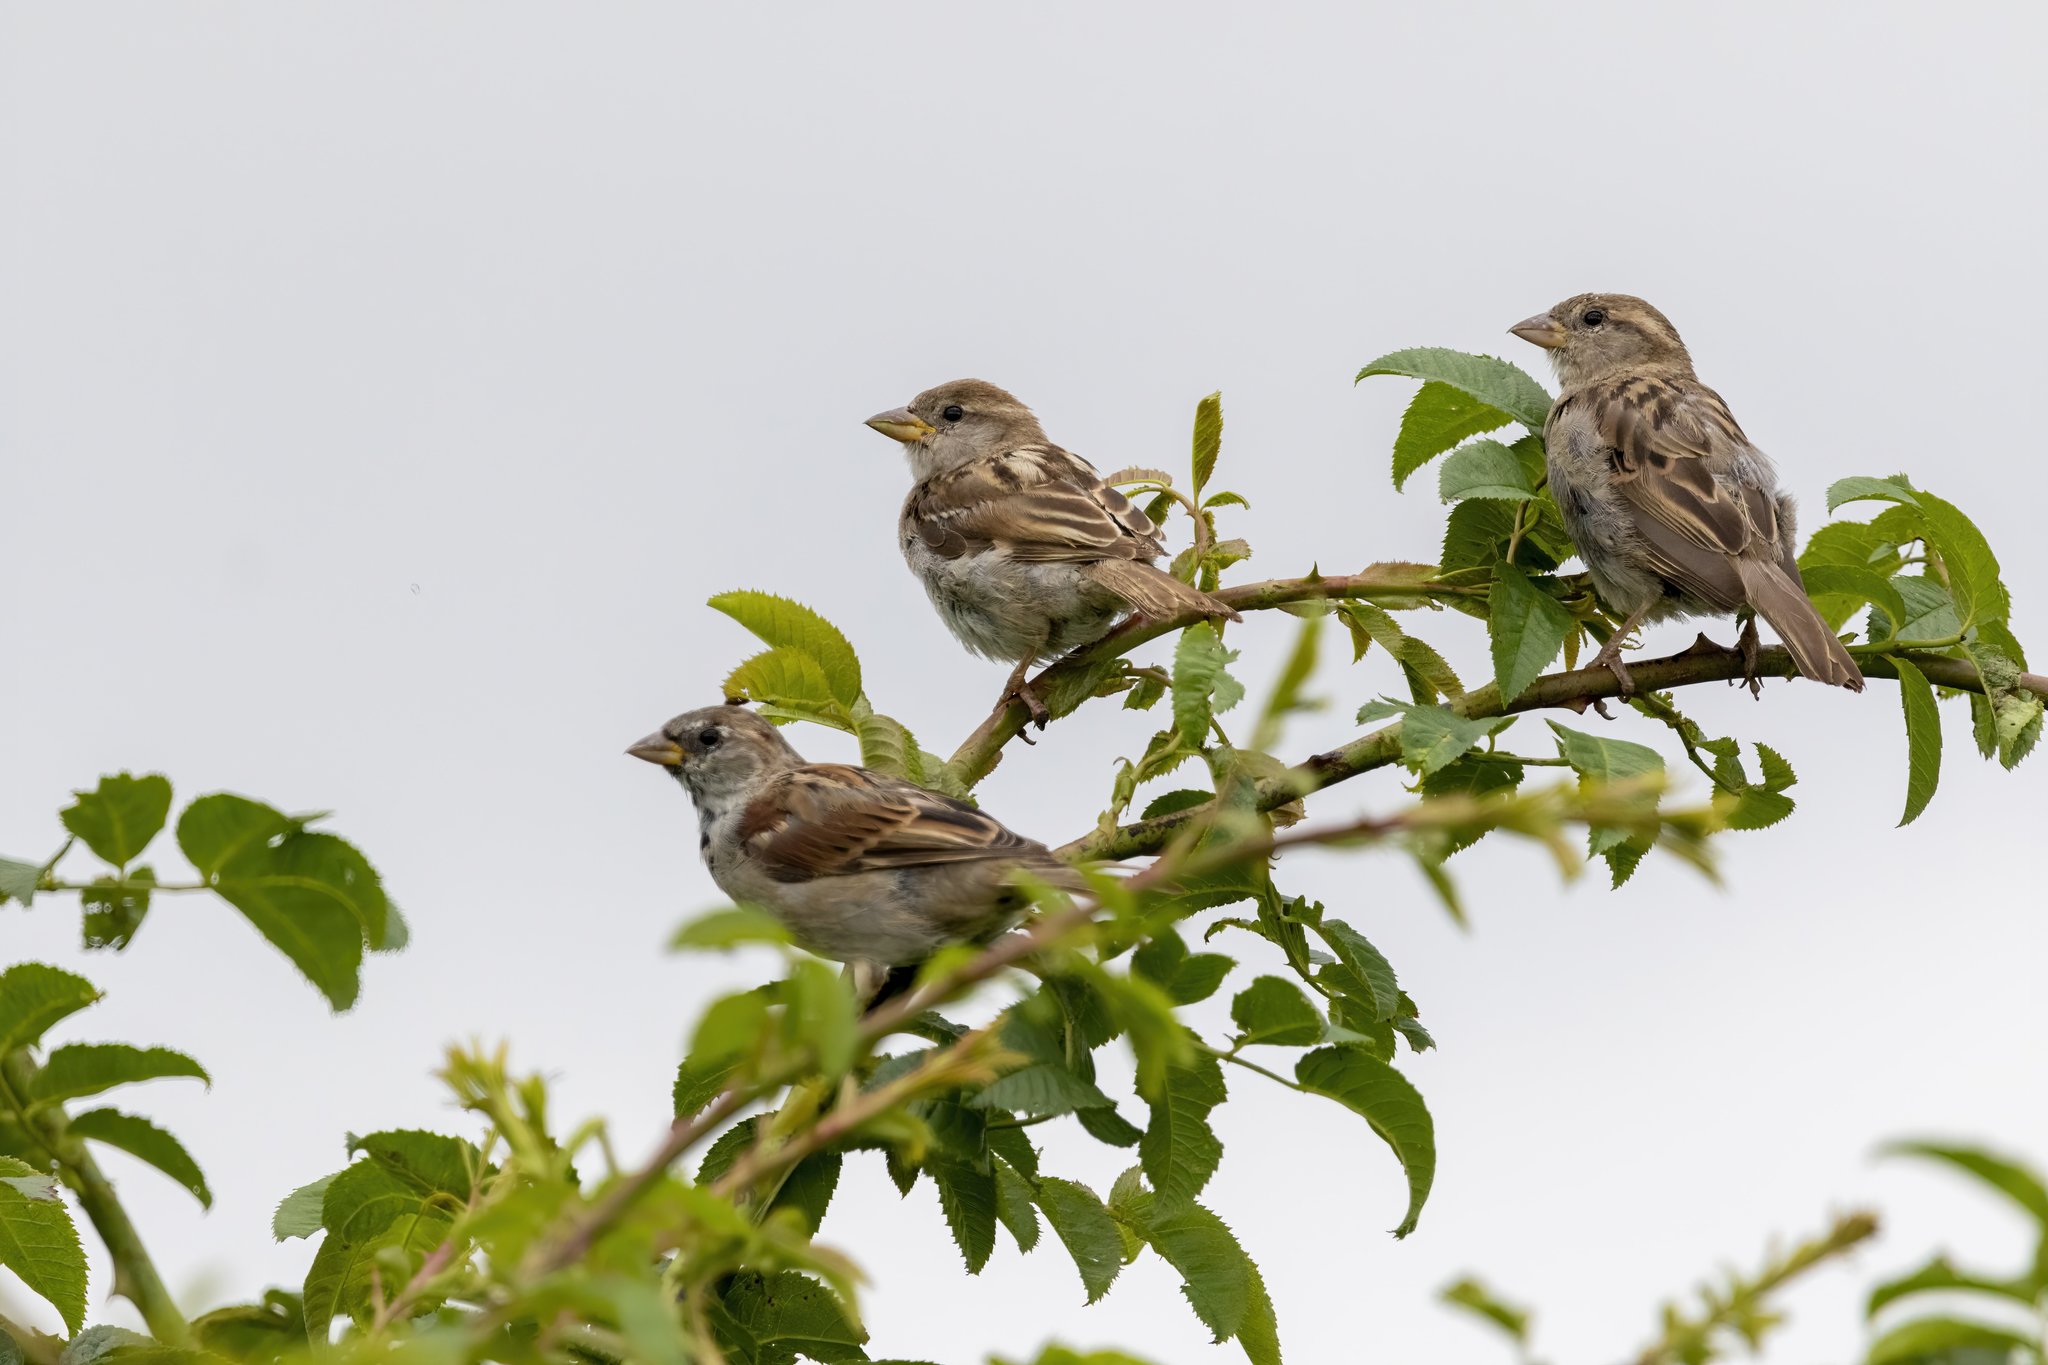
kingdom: Animalia
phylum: Chordata
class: Aves
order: Passeriformes
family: Passeridae
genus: Passer
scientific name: Passer domesticus
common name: House sparrow
